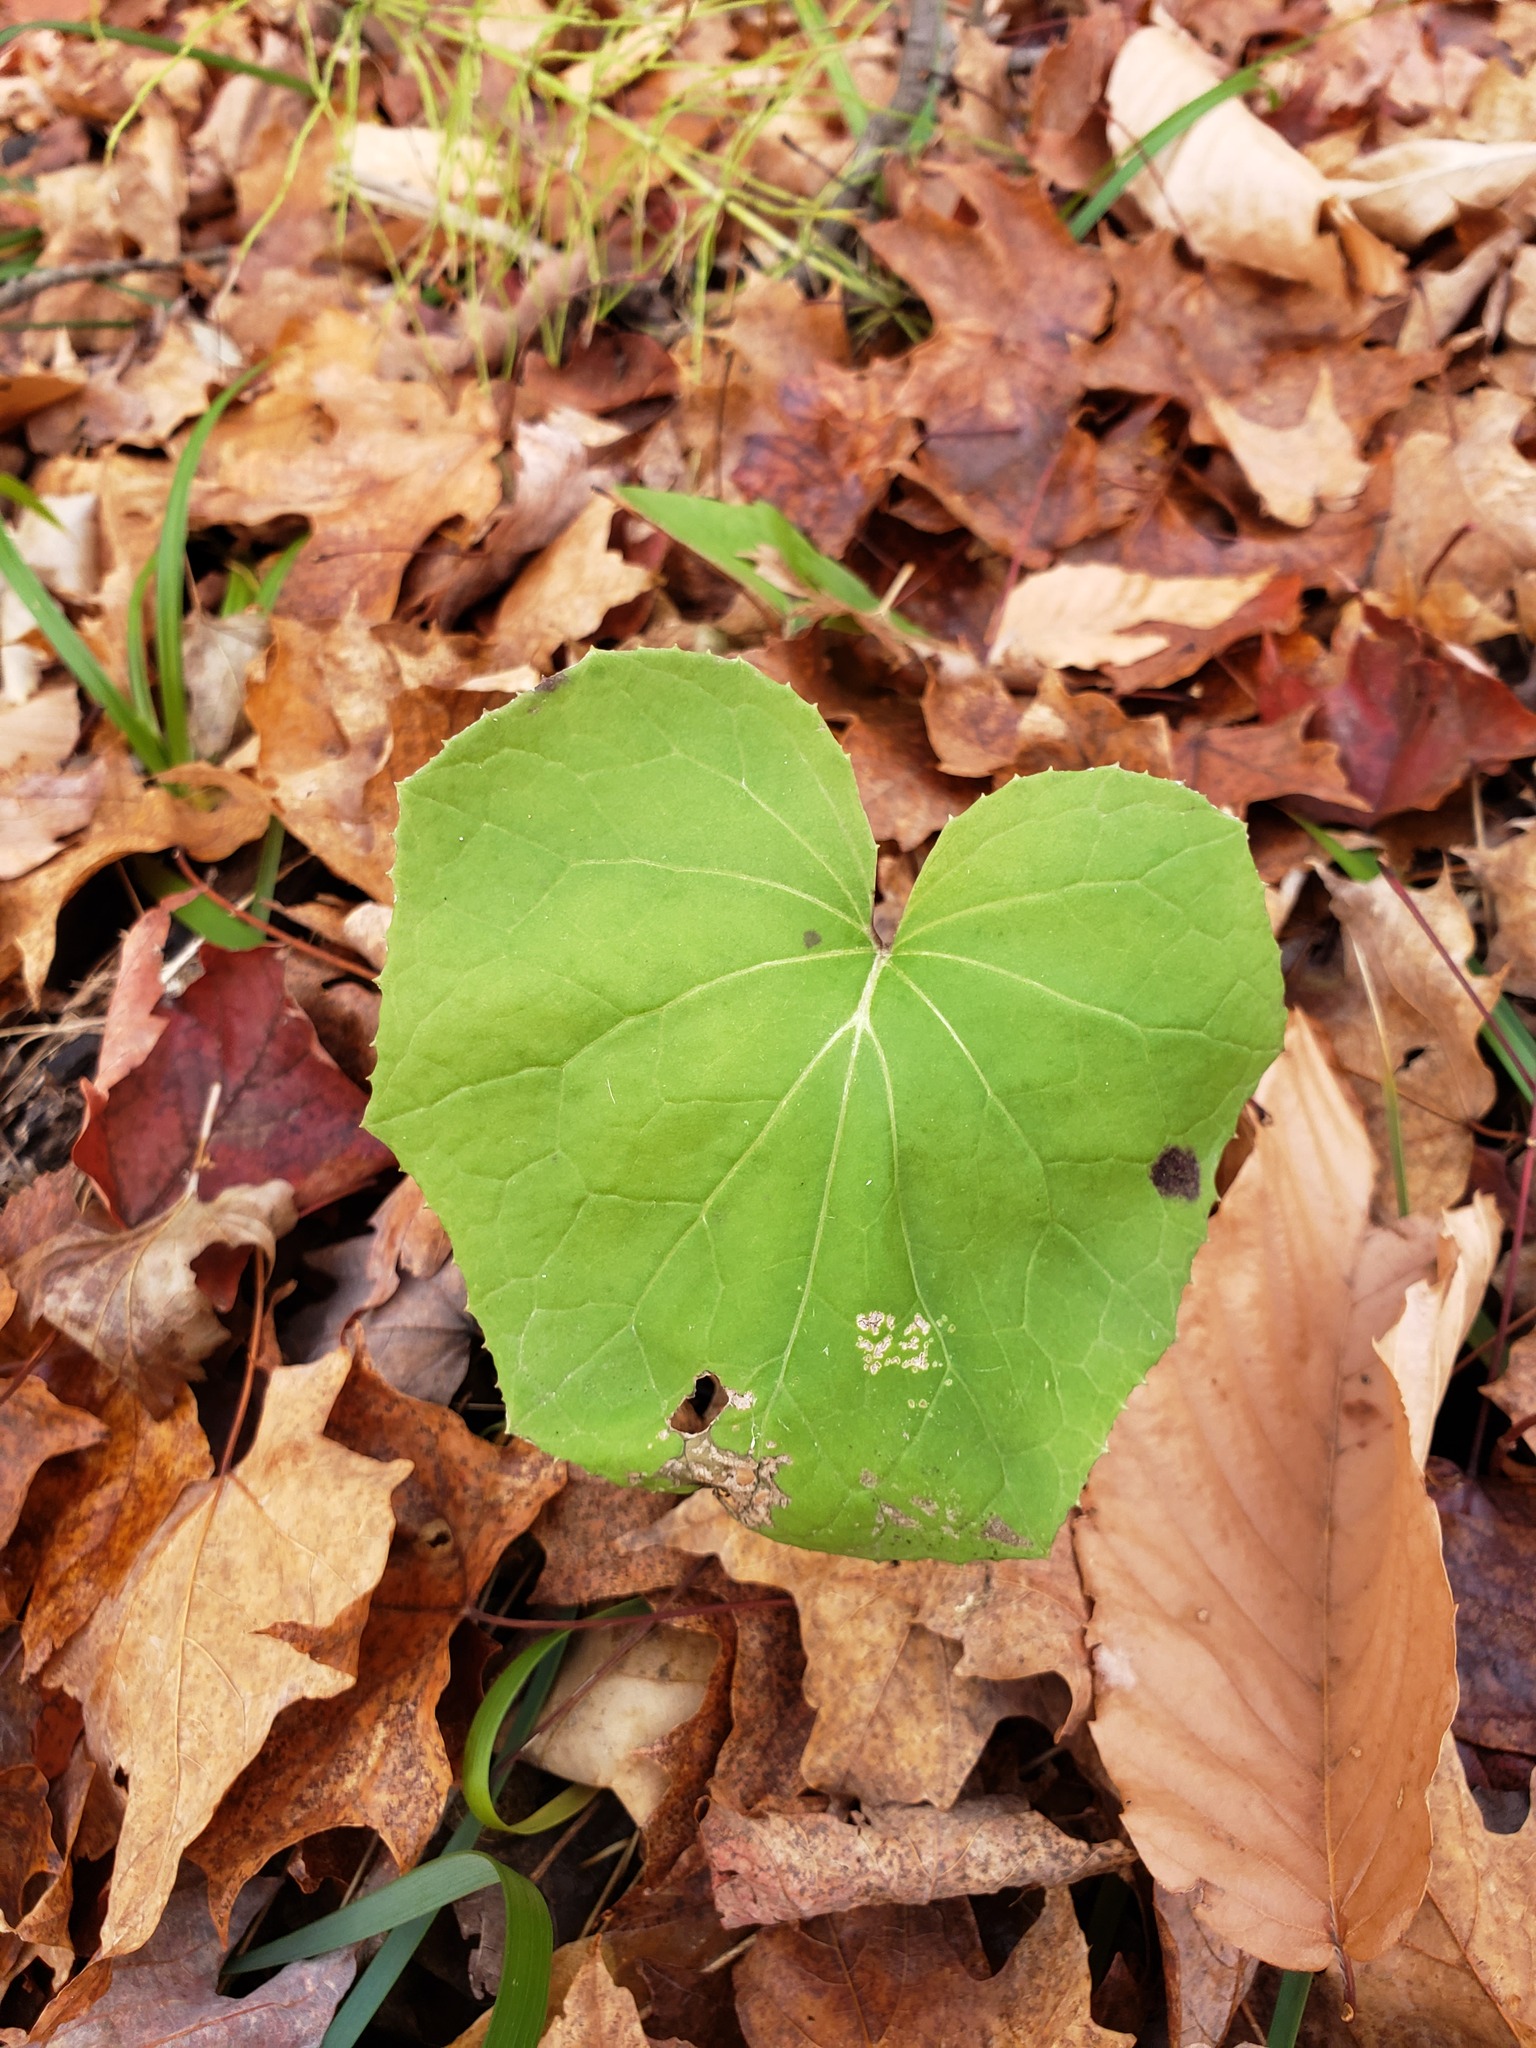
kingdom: Plantae
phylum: Tracheophyta
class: Magnoliopsida
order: Asterales
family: Asteraceae
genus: Tussilago
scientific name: Tussilago farfara
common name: Coltsfoot
